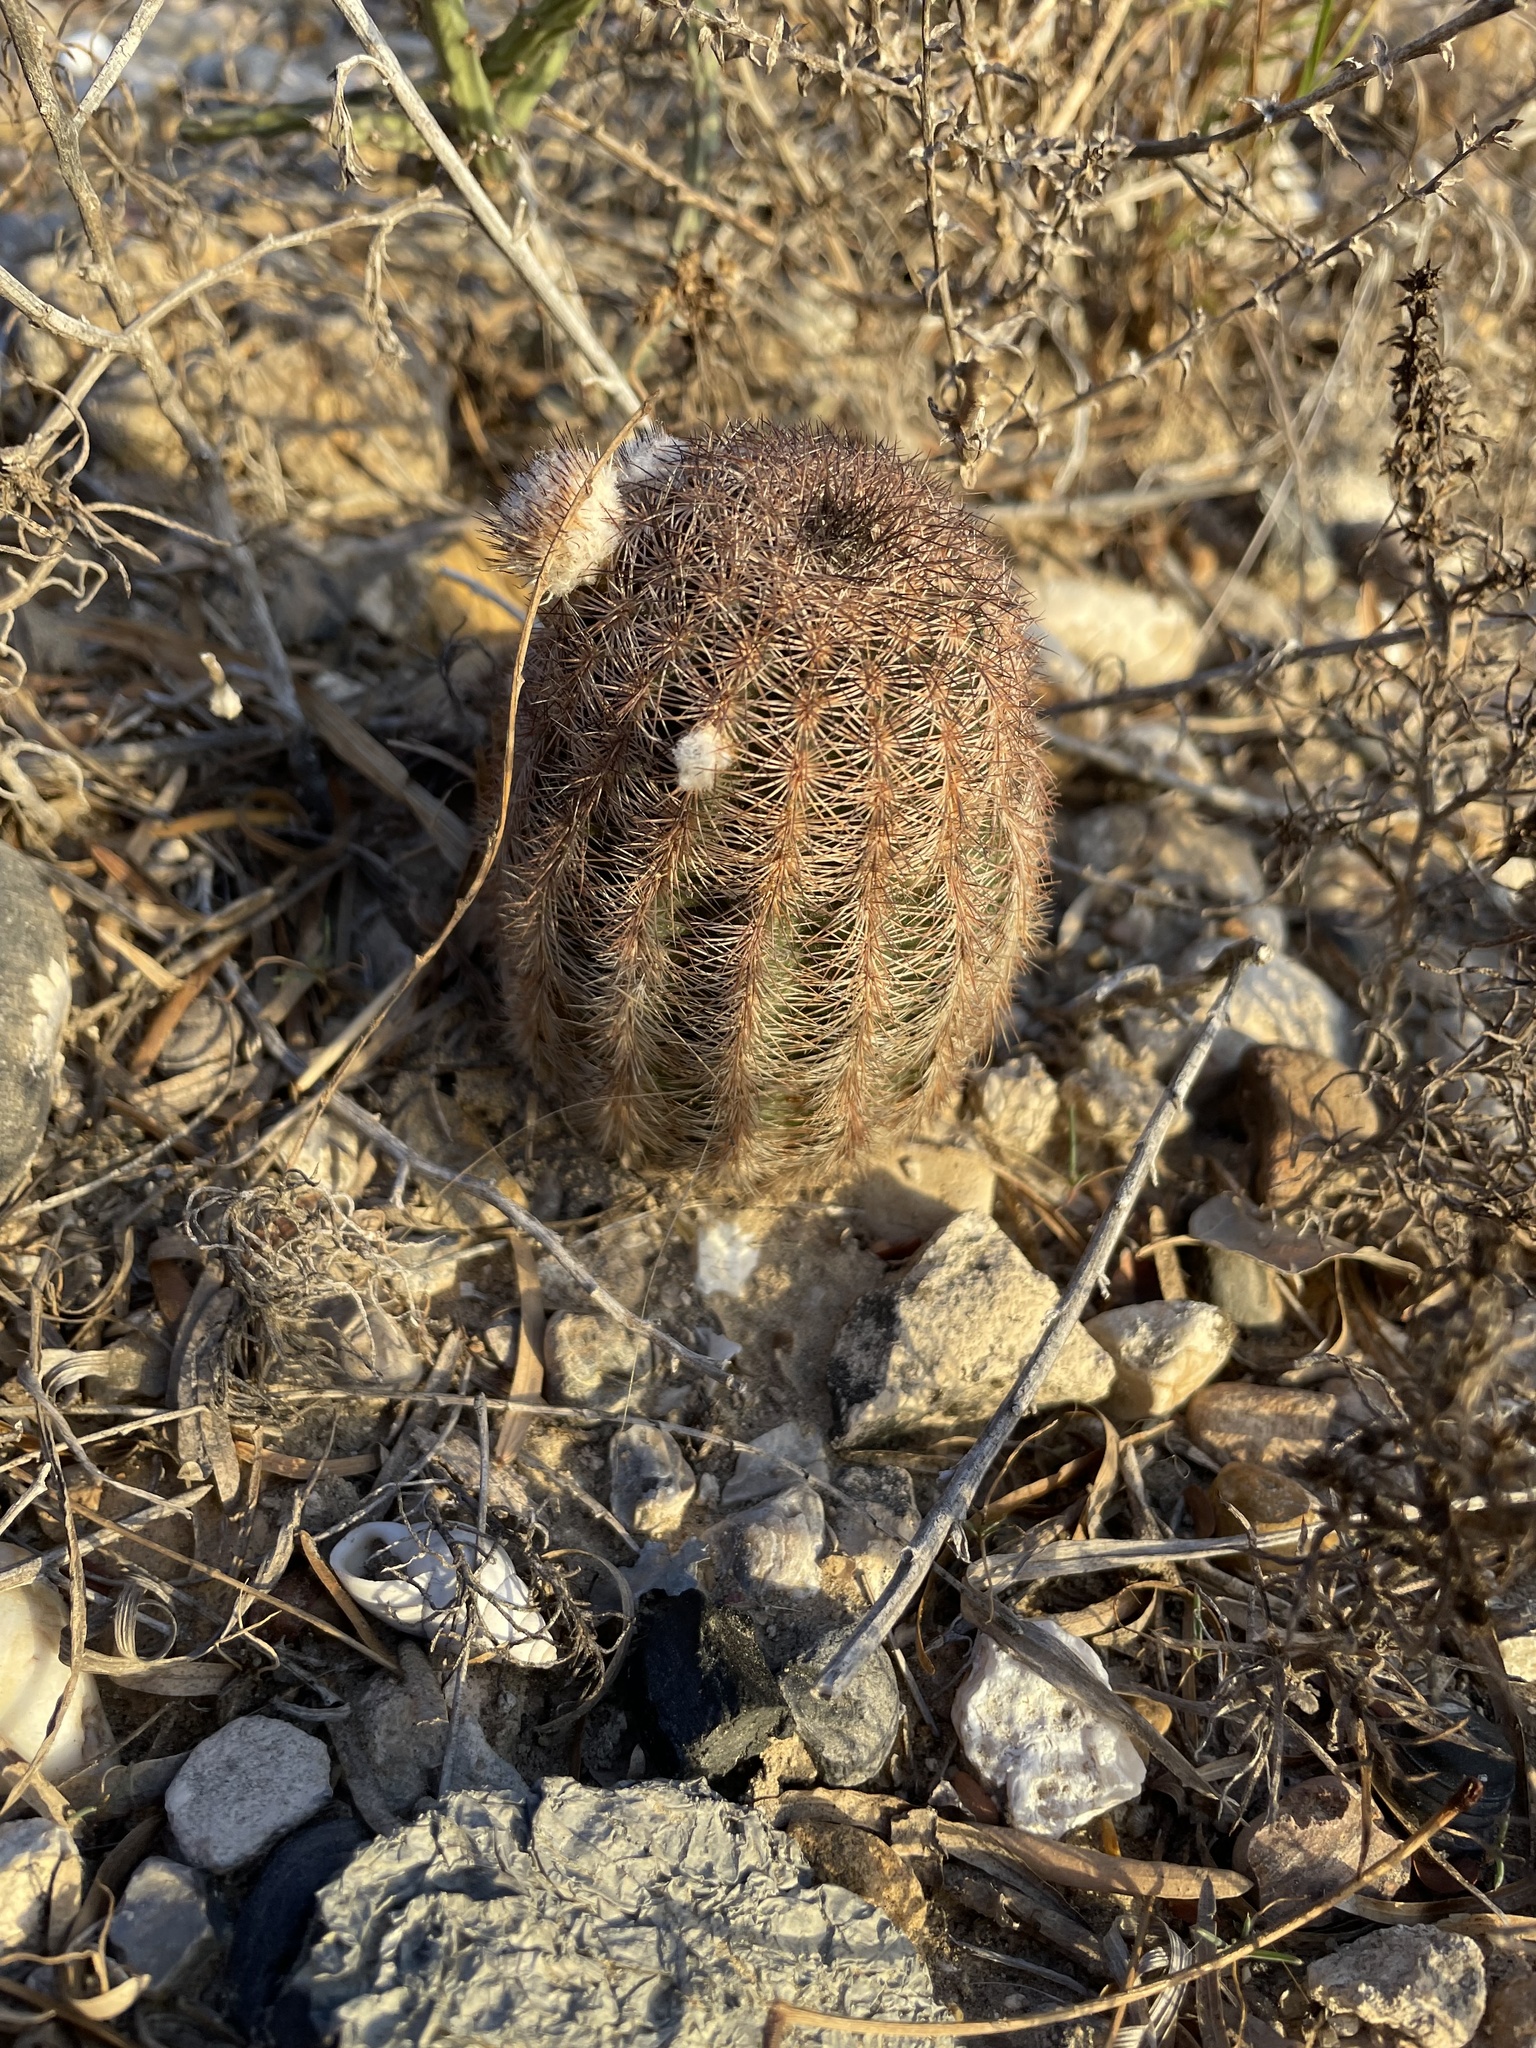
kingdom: Plantae
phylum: Tracheophyta
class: Magnoliopsida
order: Caryophyllales
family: Cactaceae
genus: Echinocereus
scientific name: Echinocereus reichenbachii
